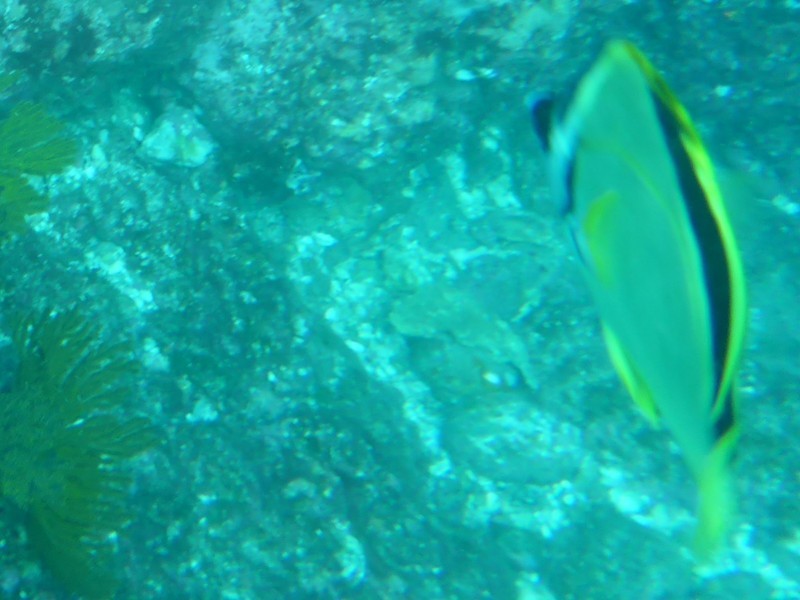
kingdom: Animalia
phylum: Chordata
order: Perciformes
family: Chaetodontidae
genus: Johnrandallia
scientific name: Johnrandallia nigrirostris
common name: Barberfish
